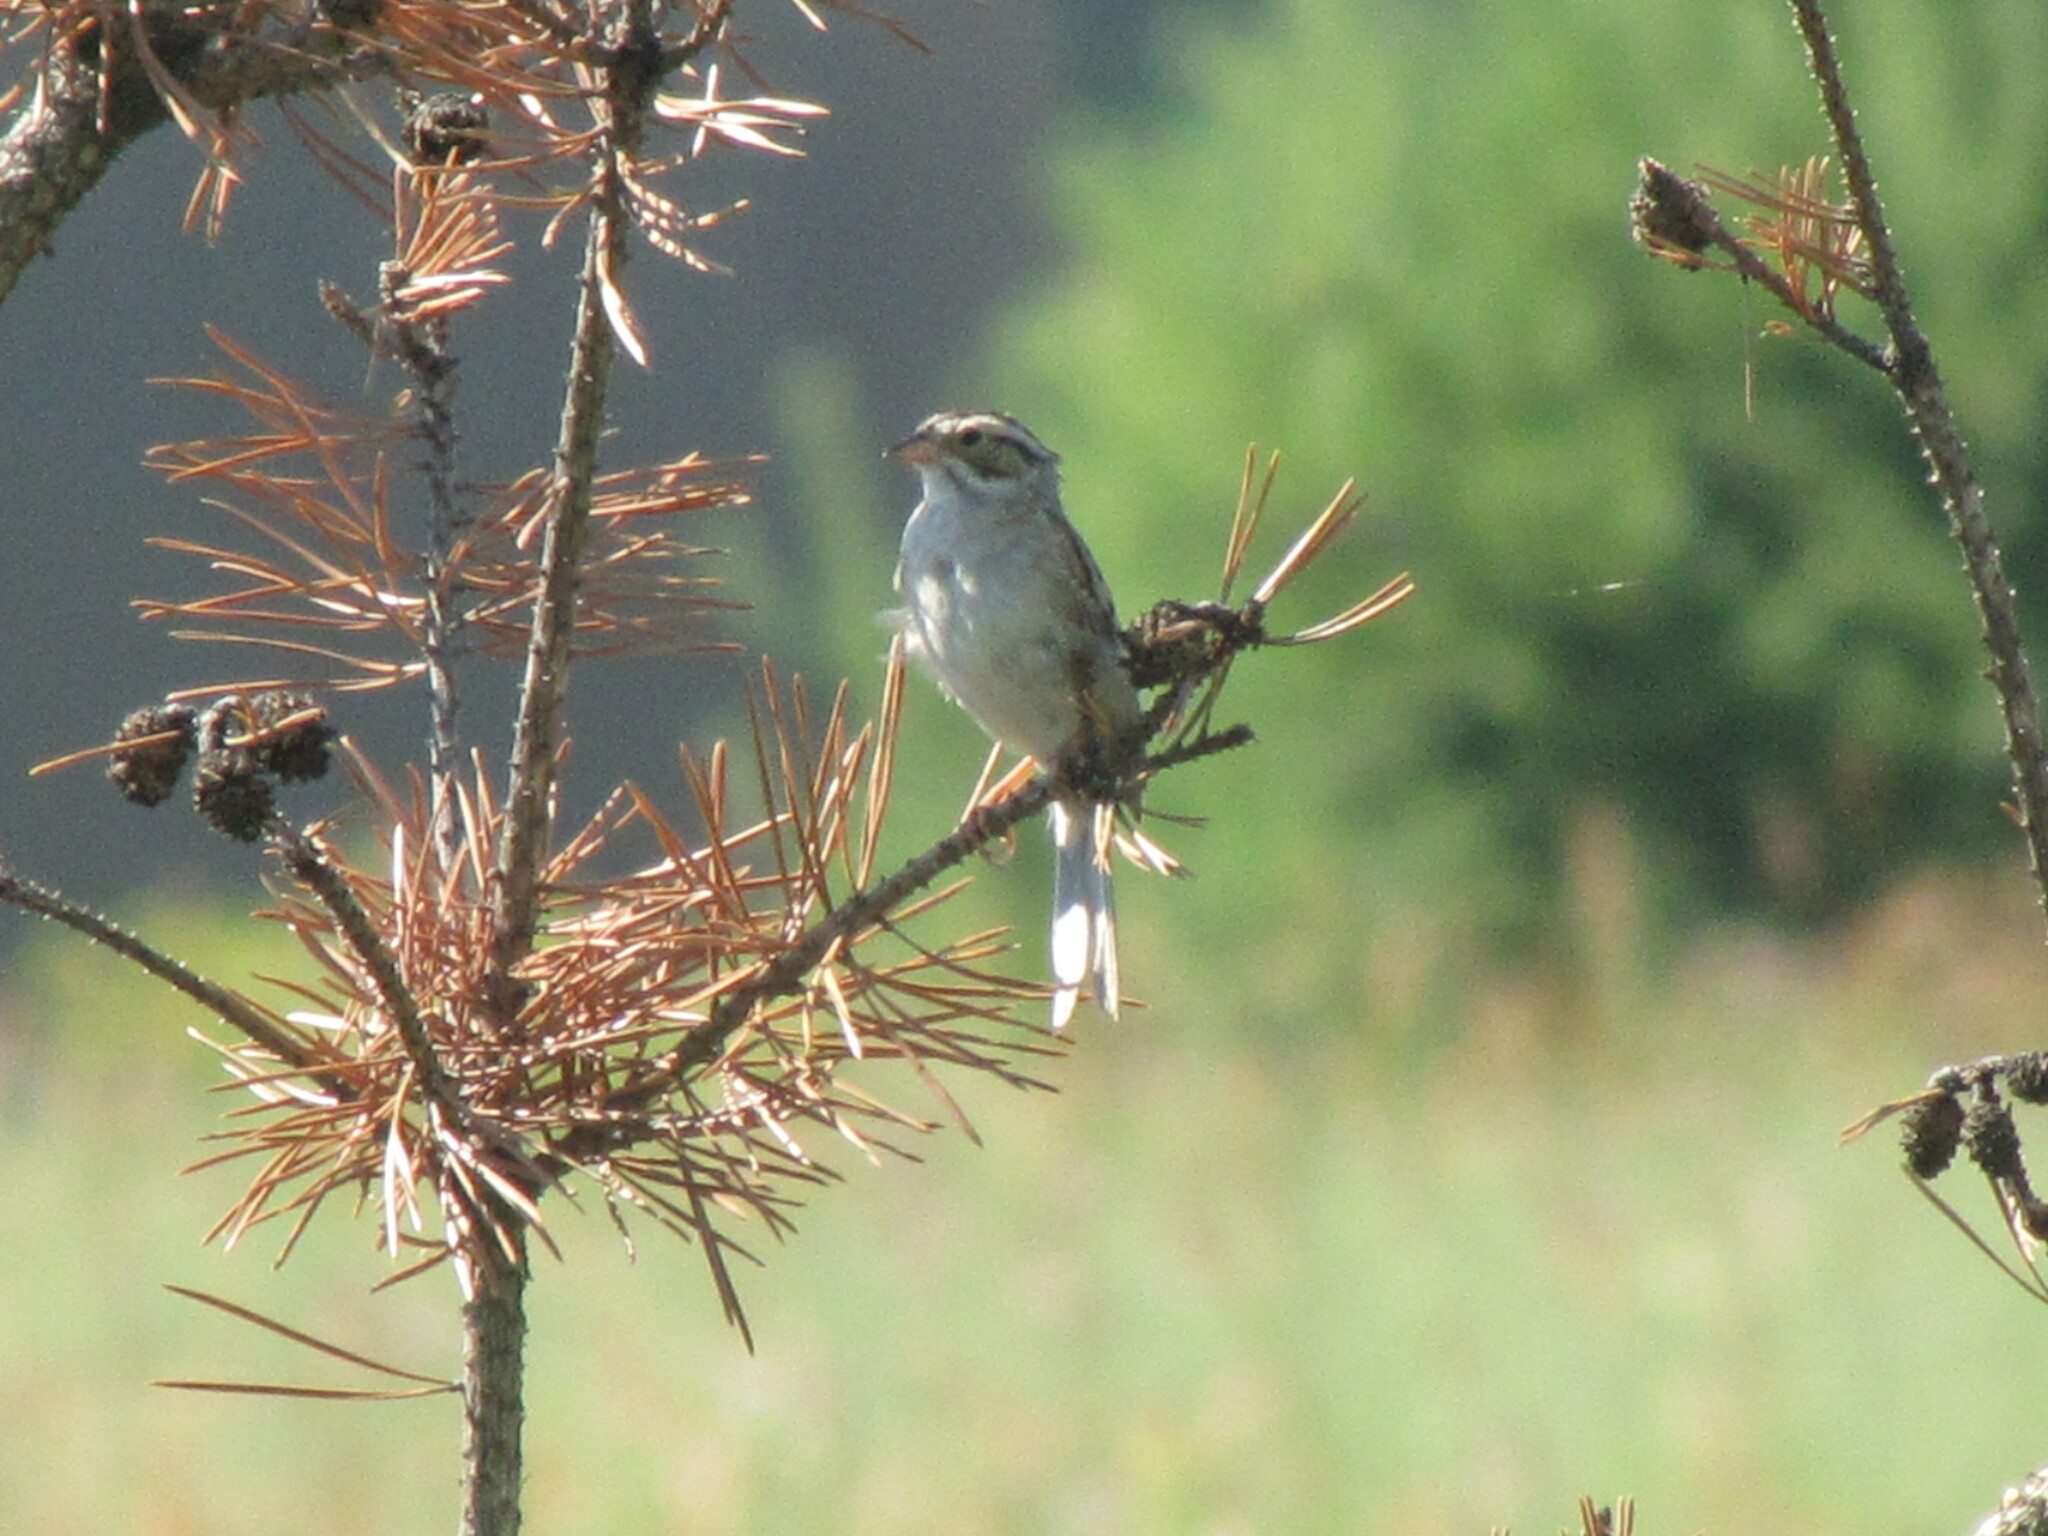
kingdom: Animalia
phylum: Chordata
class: Aves
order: Passeriformes
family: Passerellidae
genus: Spizella
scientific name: Spizella pallida
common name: Clay-colored sparrow
